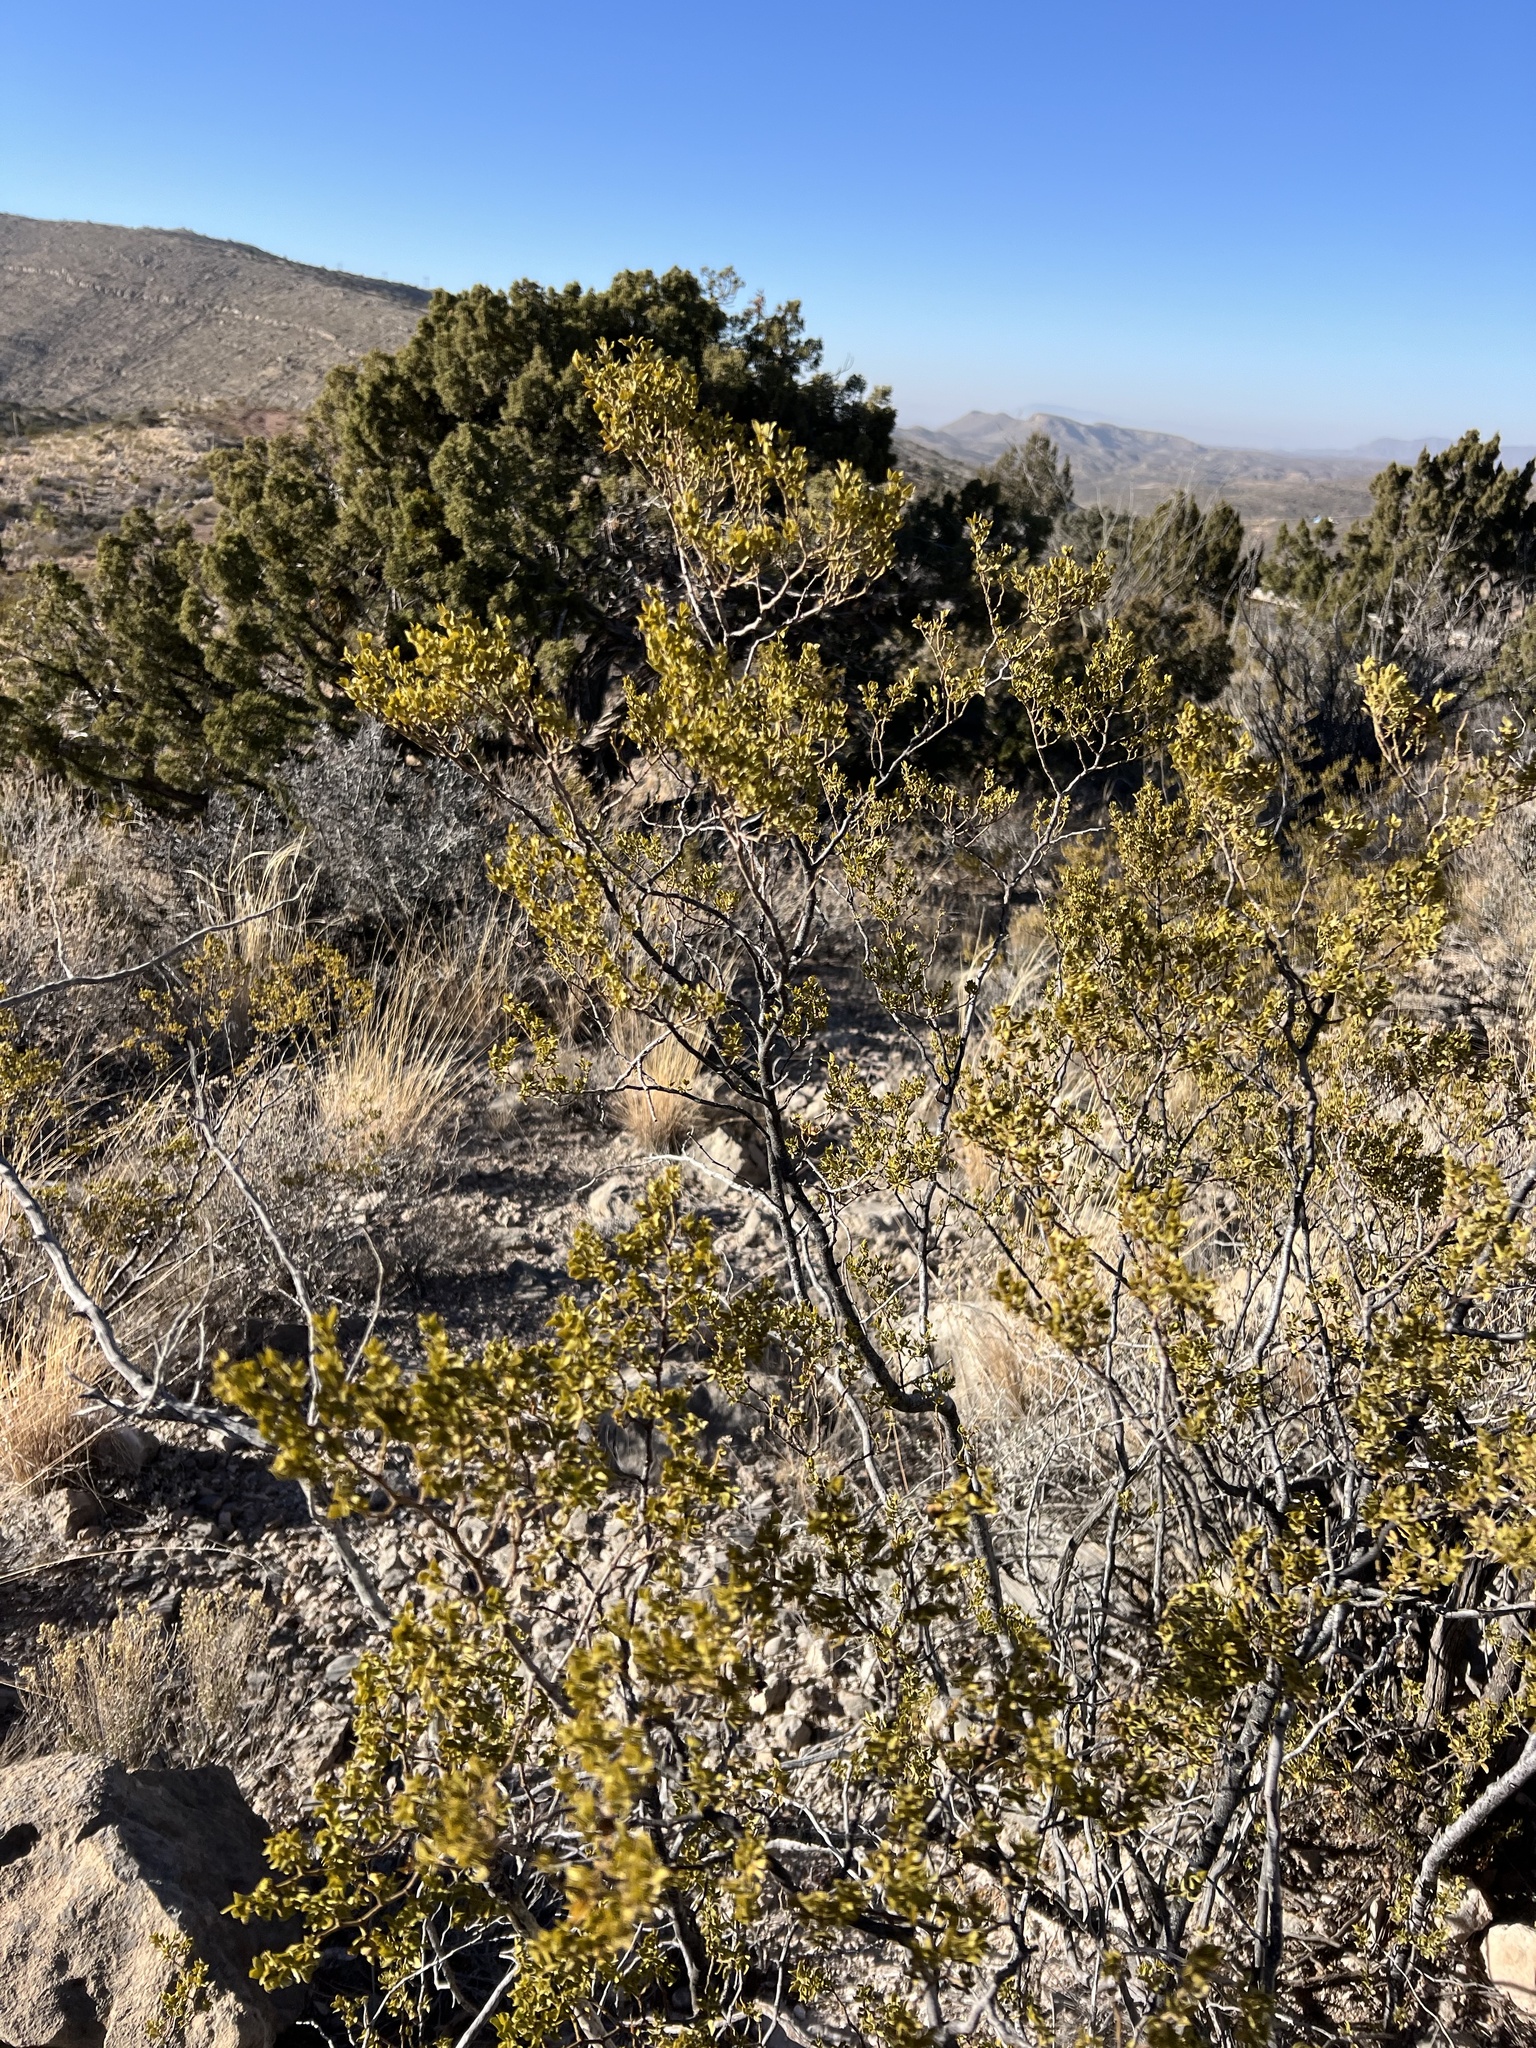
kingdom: Plantae
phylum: Tracheophyta
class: Magnoliopsida
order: Zygophyllales
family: Zygophyllaceae
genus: Larrea
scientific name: Larrea tridentata
